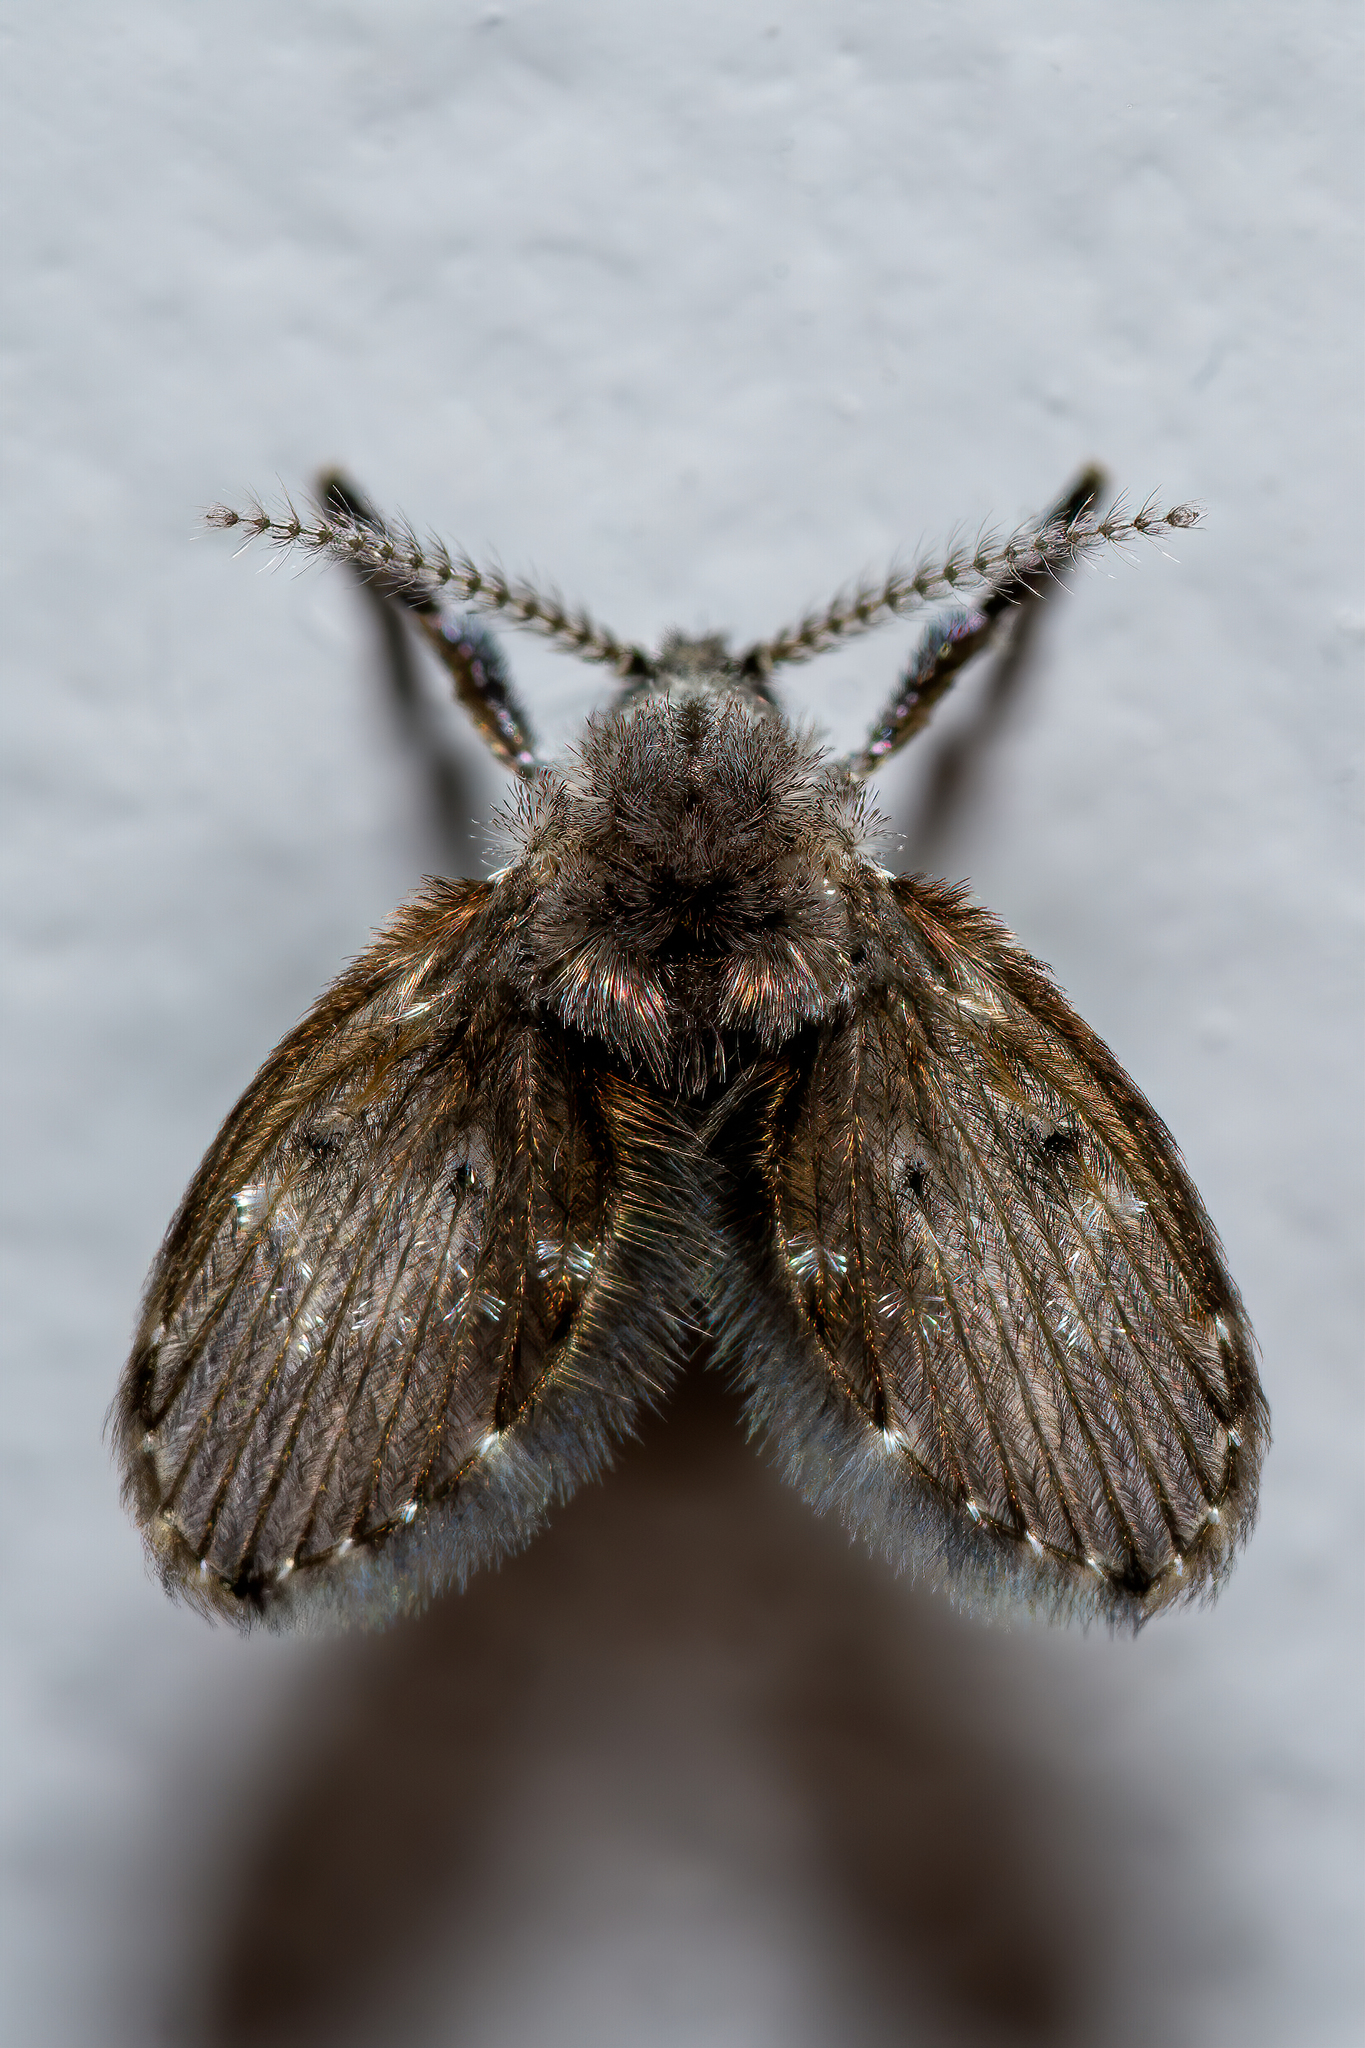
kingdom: Animalia
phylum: Arthropoda
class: Insecta
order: Diptera
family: Psychodidae
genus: Clogmia
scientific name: Clogmia albipunctatus
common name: White-spotted moth fly
